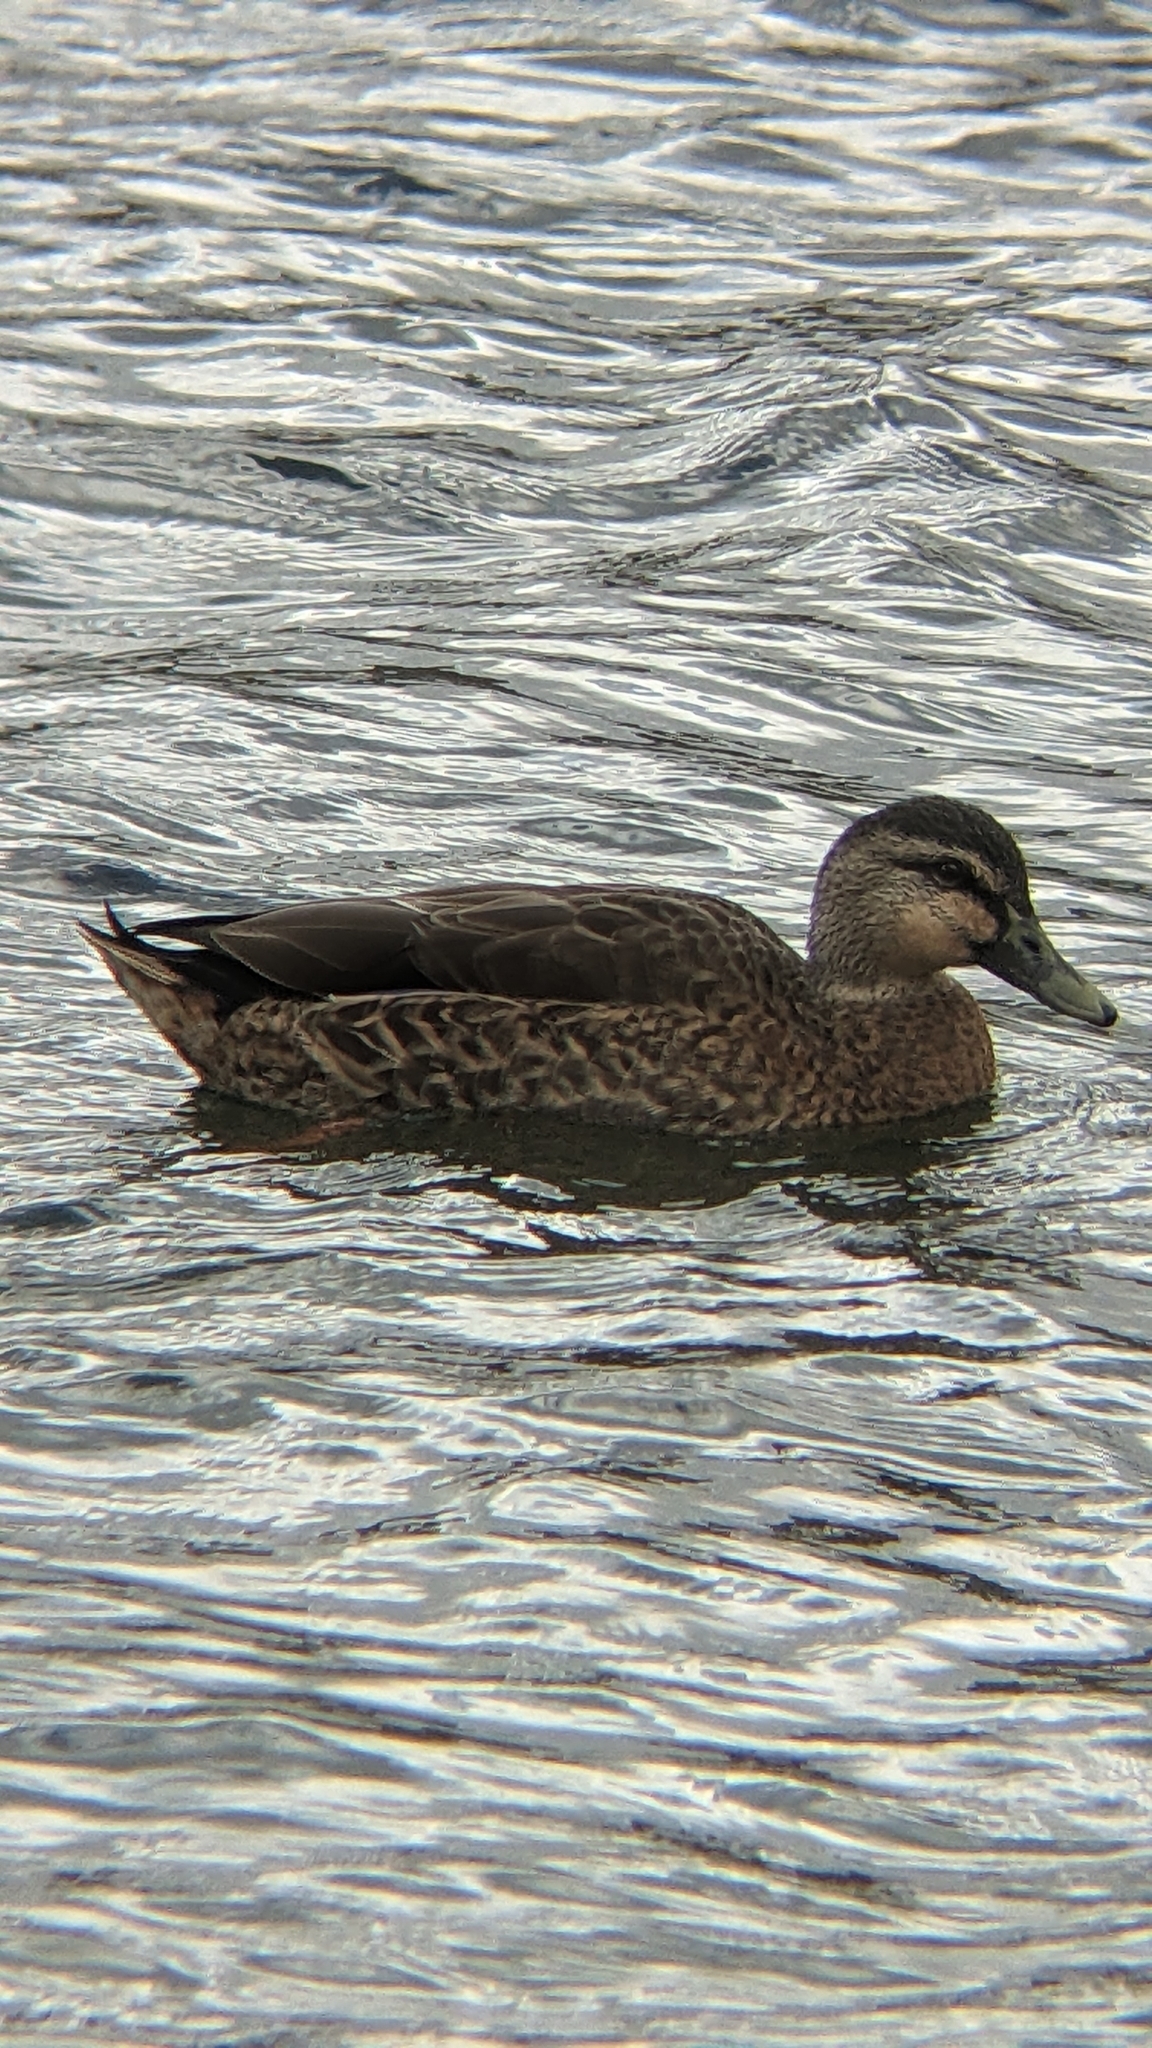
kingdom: Animalia
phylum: Chordata
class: Aves
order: Anseriformes
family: Anatidae
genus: Anas
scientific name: Anas
